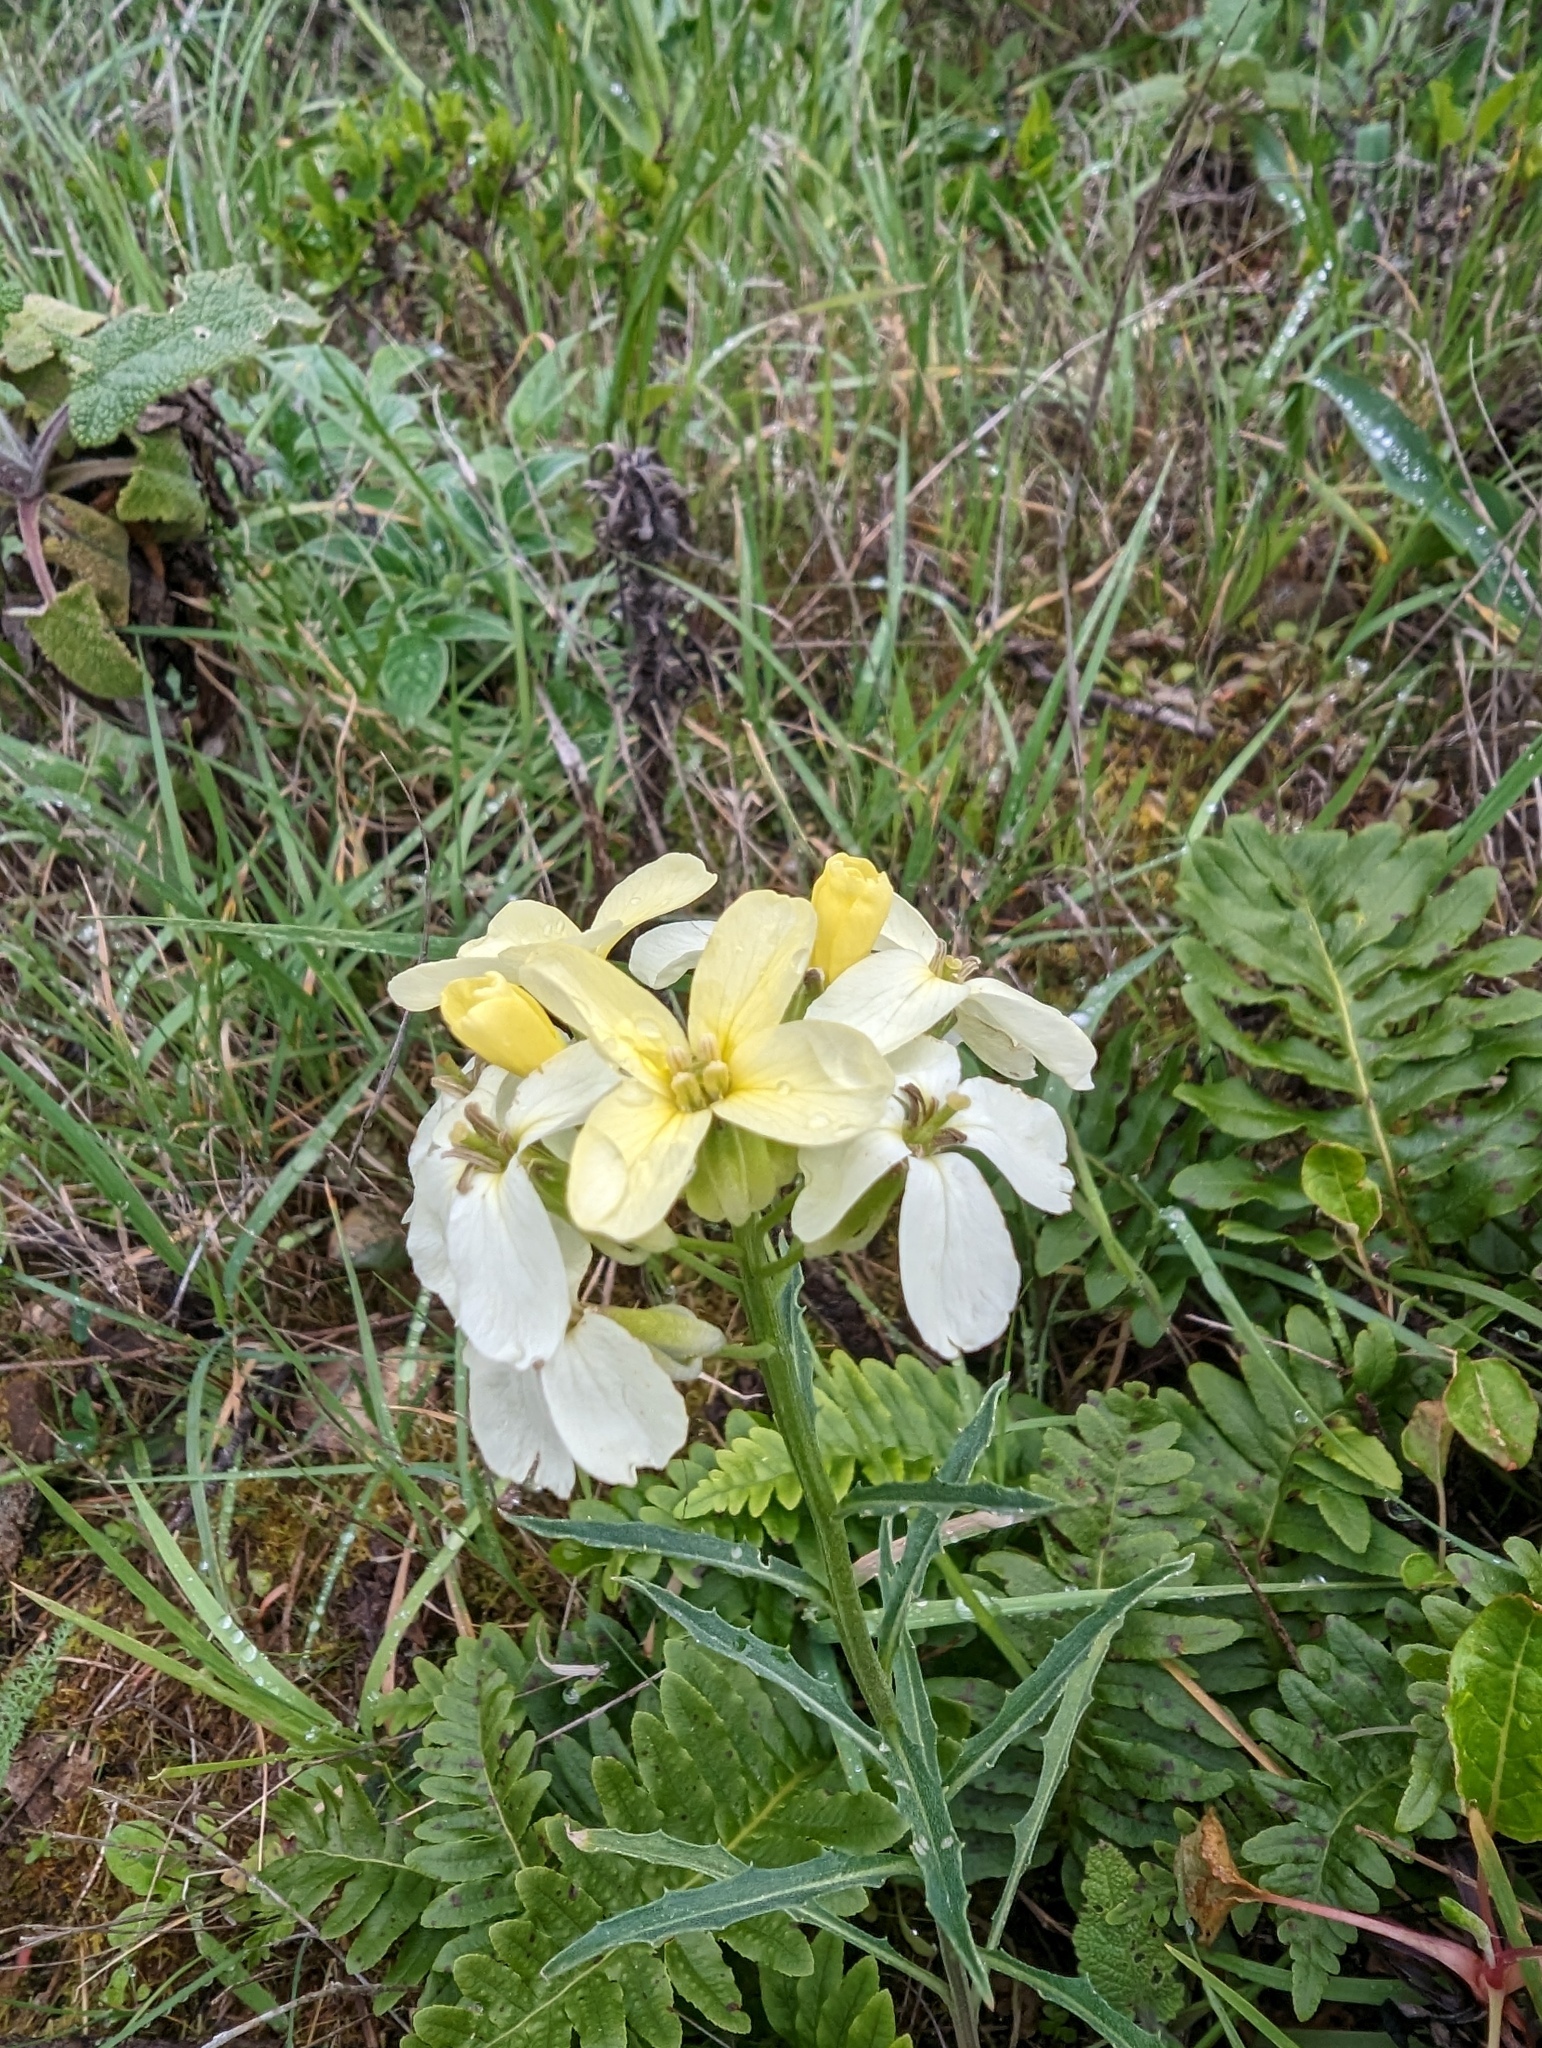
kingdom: Plantae
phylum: Tracheophyta
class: Magnoliopsida
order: Brassicales
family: Brassicaceae
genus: Erysimum
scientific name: Erysimum franciscanum
